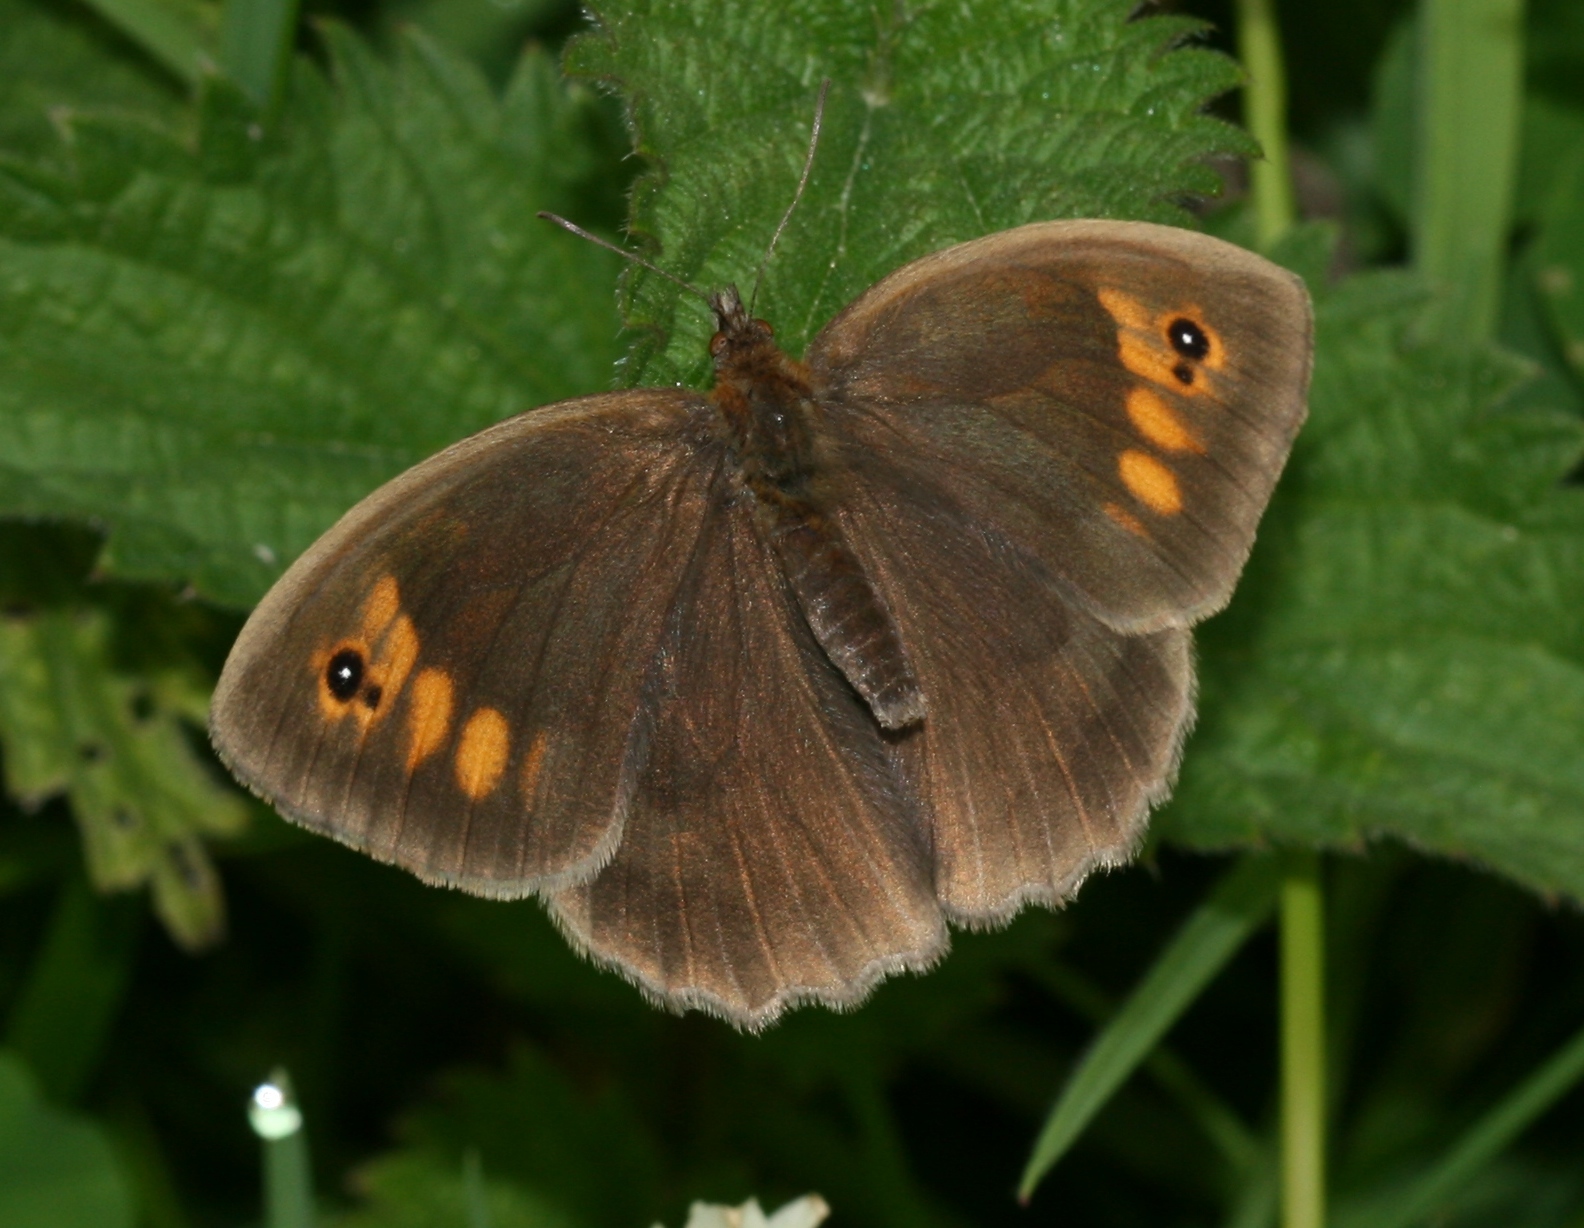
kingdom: Animalia
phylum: Arthropoda
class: Insecta
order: Lepidoptera
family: Nymphalidae
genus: Maniola
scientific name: Maniola jurtina
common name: Meadow brown
